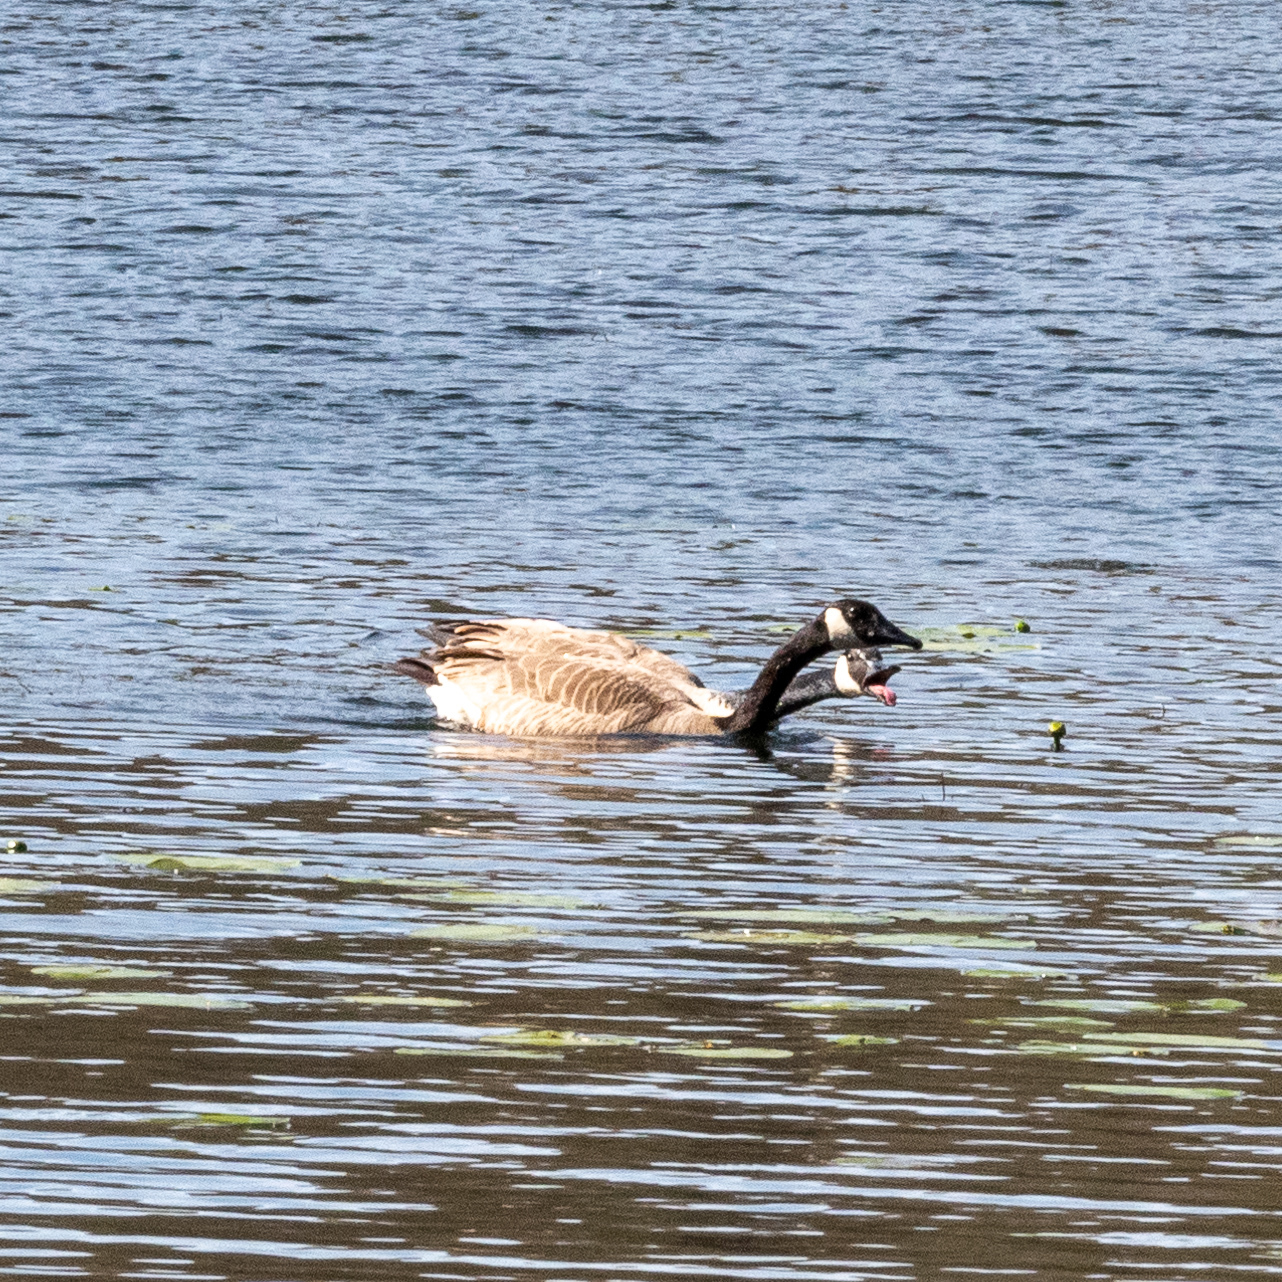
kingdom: Animalia
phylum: Chordata
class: Aves
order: Anseriformes
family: Anatidae
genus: Branta
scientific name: Branta canadensis
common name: Canada goose
